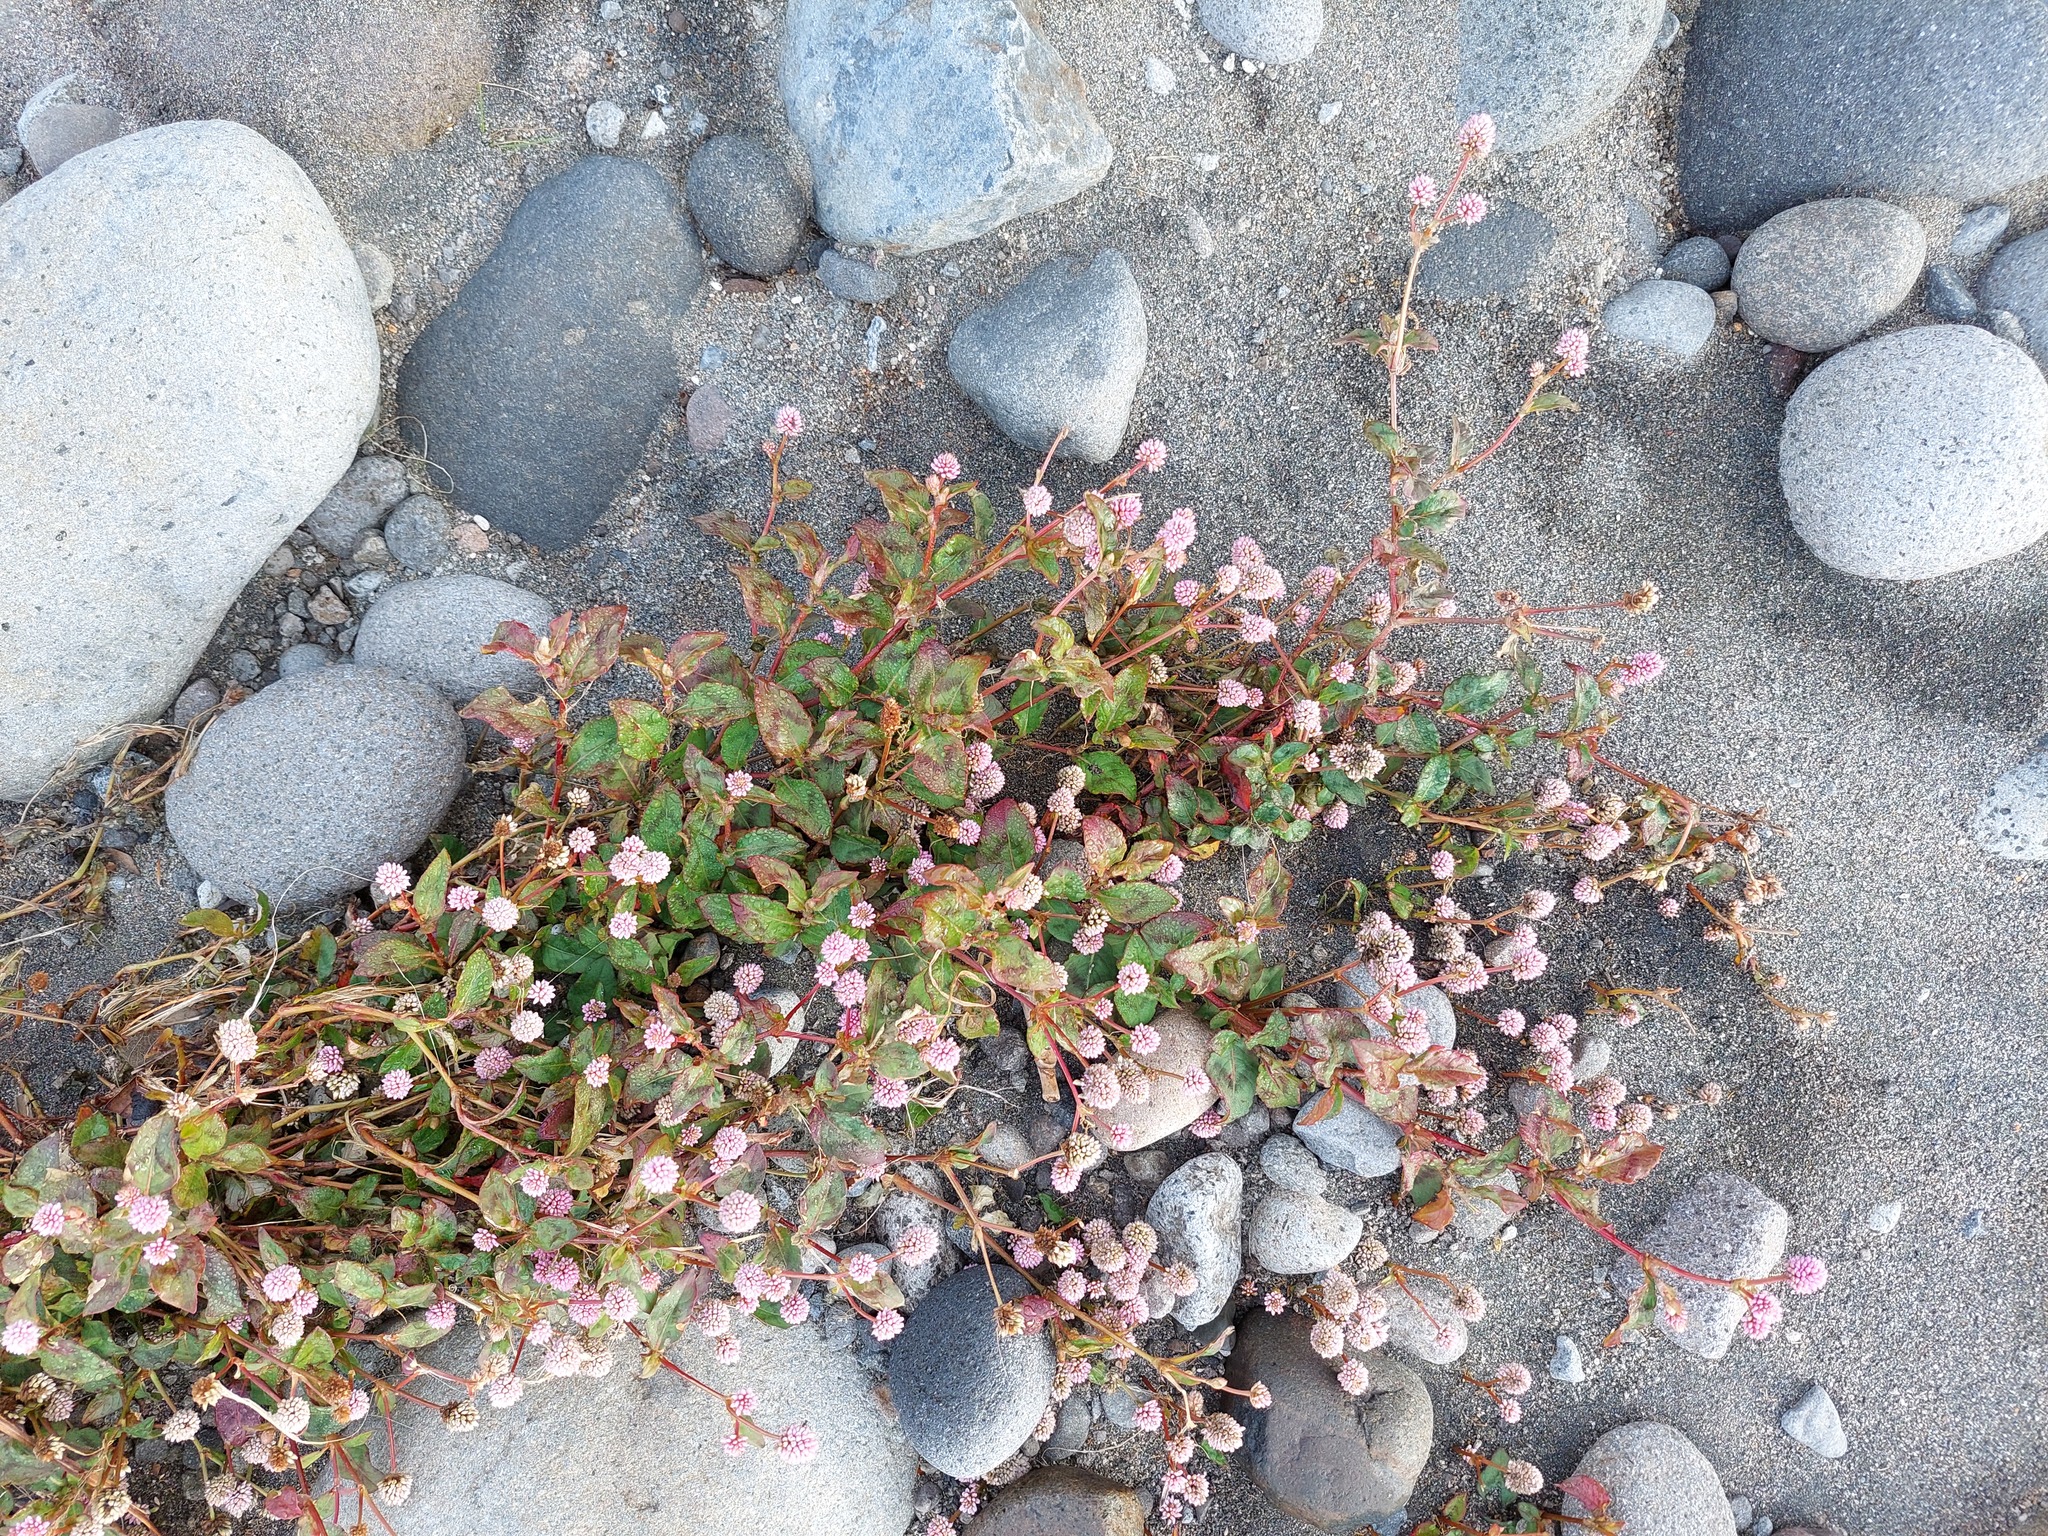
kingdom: Plantae
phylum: Tracheophyta
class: Magnoliopsida
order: Caryophyllales
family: Polygonaceae
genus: Persicaria
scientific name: Persicaria capitata
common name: Pinkhead smartweed
